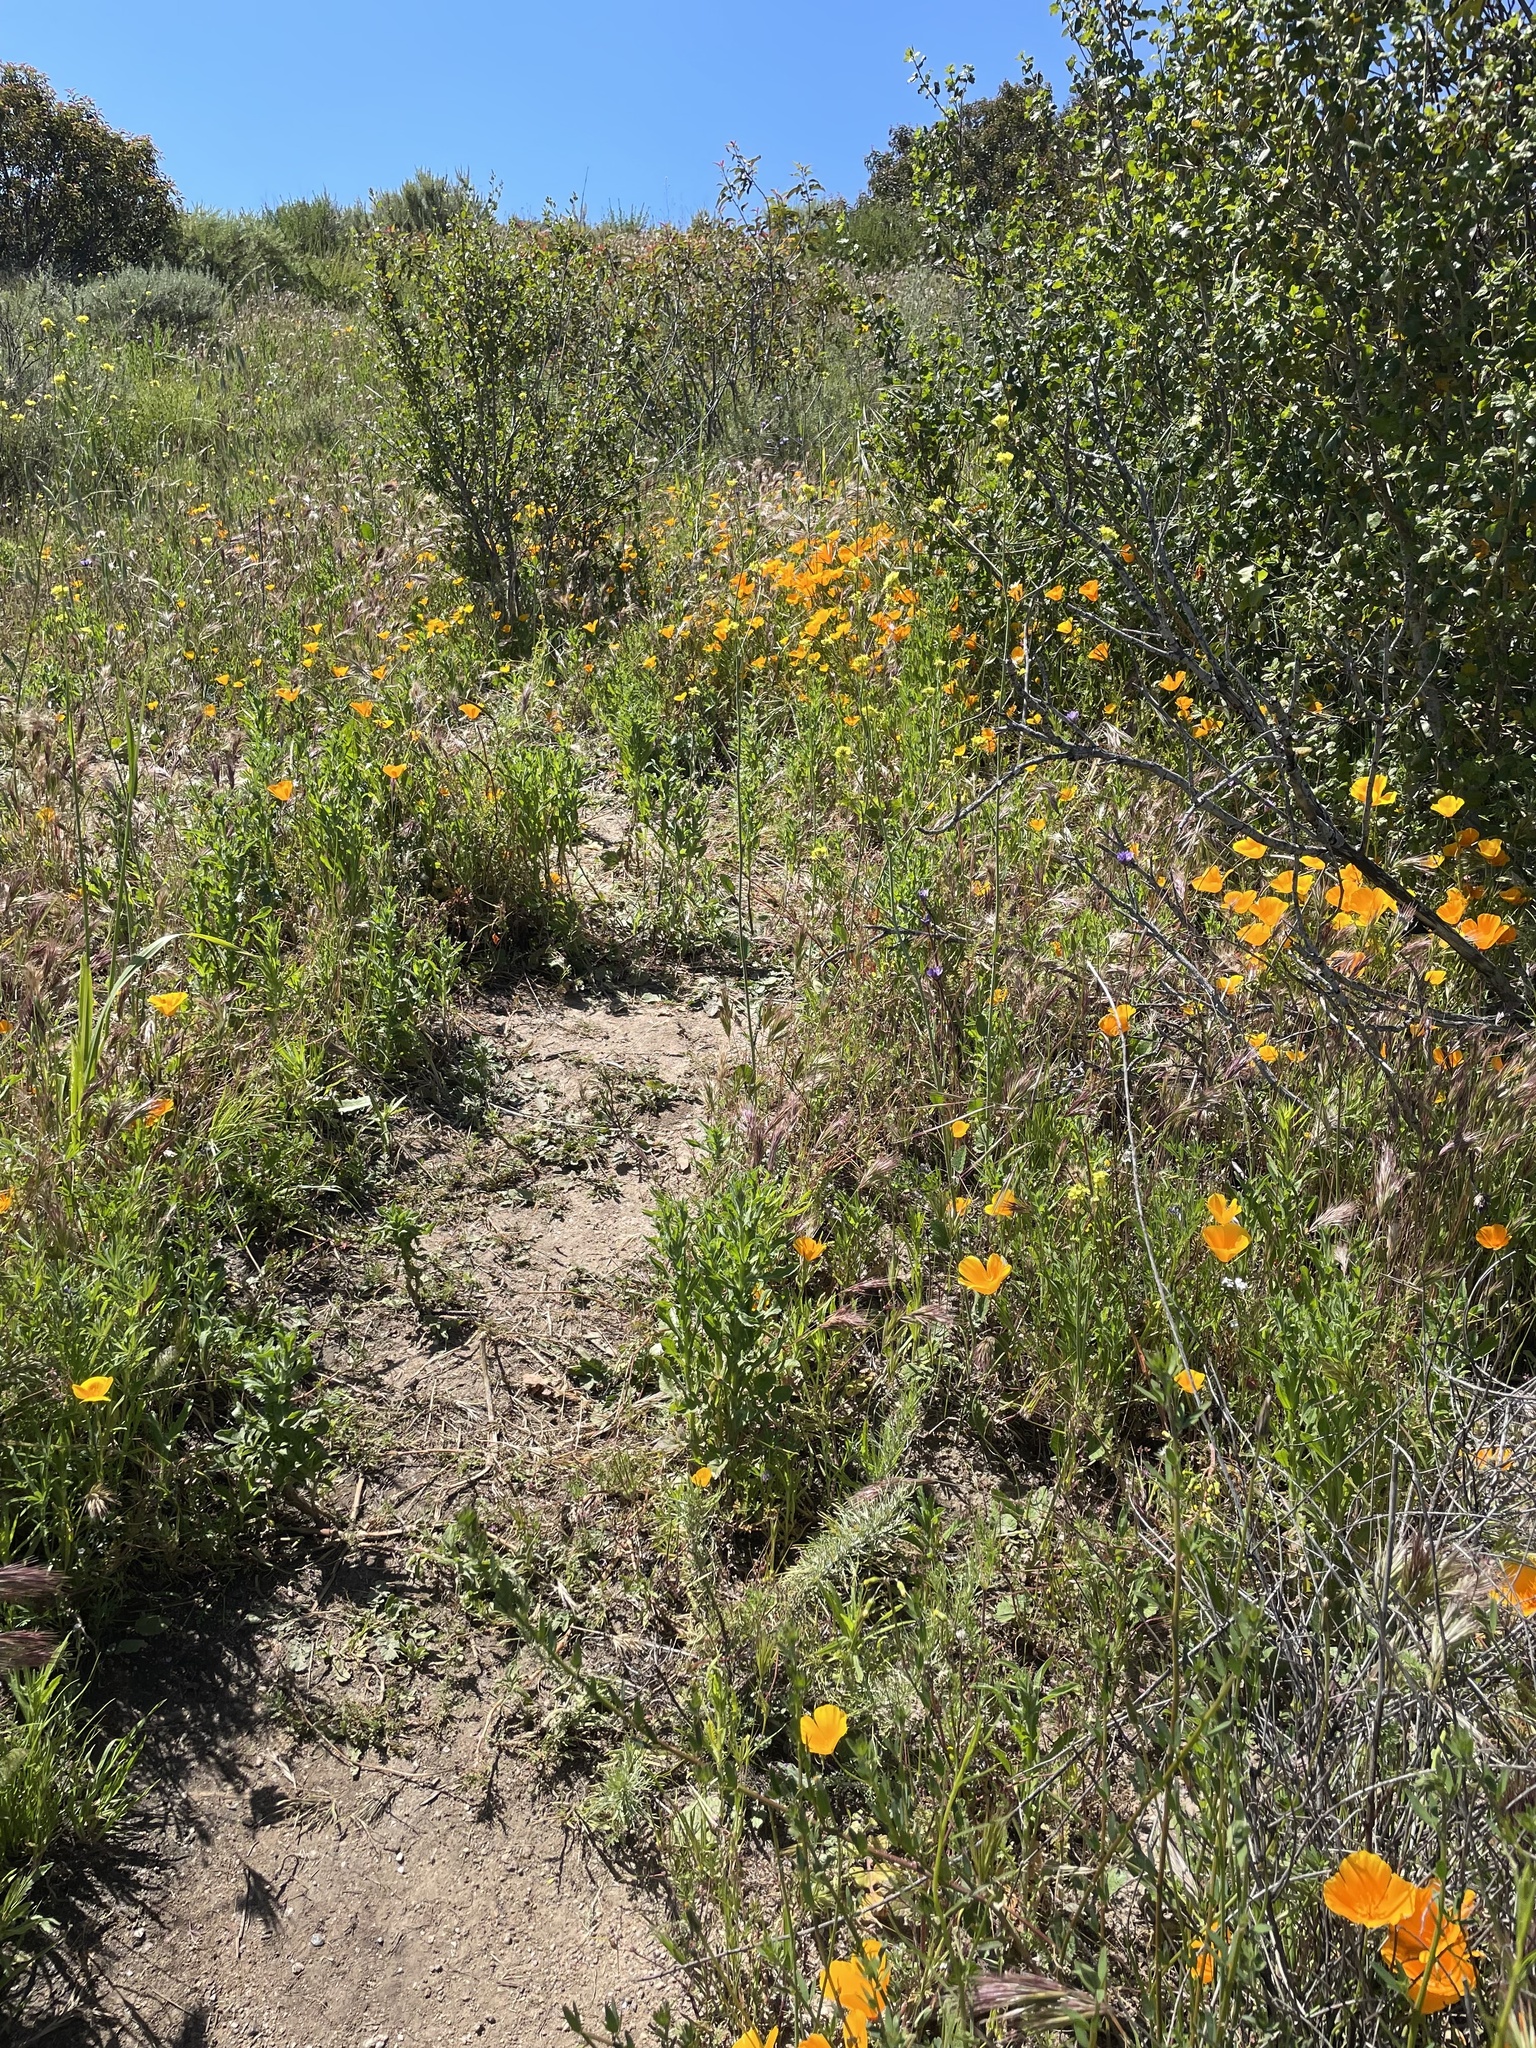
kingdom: Plantae
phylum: Tracheophyta
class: Magnoliopsida
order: Ranunculales
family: Papaveraceae
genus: Eschscholzia
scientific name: Eschscholzia californica
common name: California poppy
